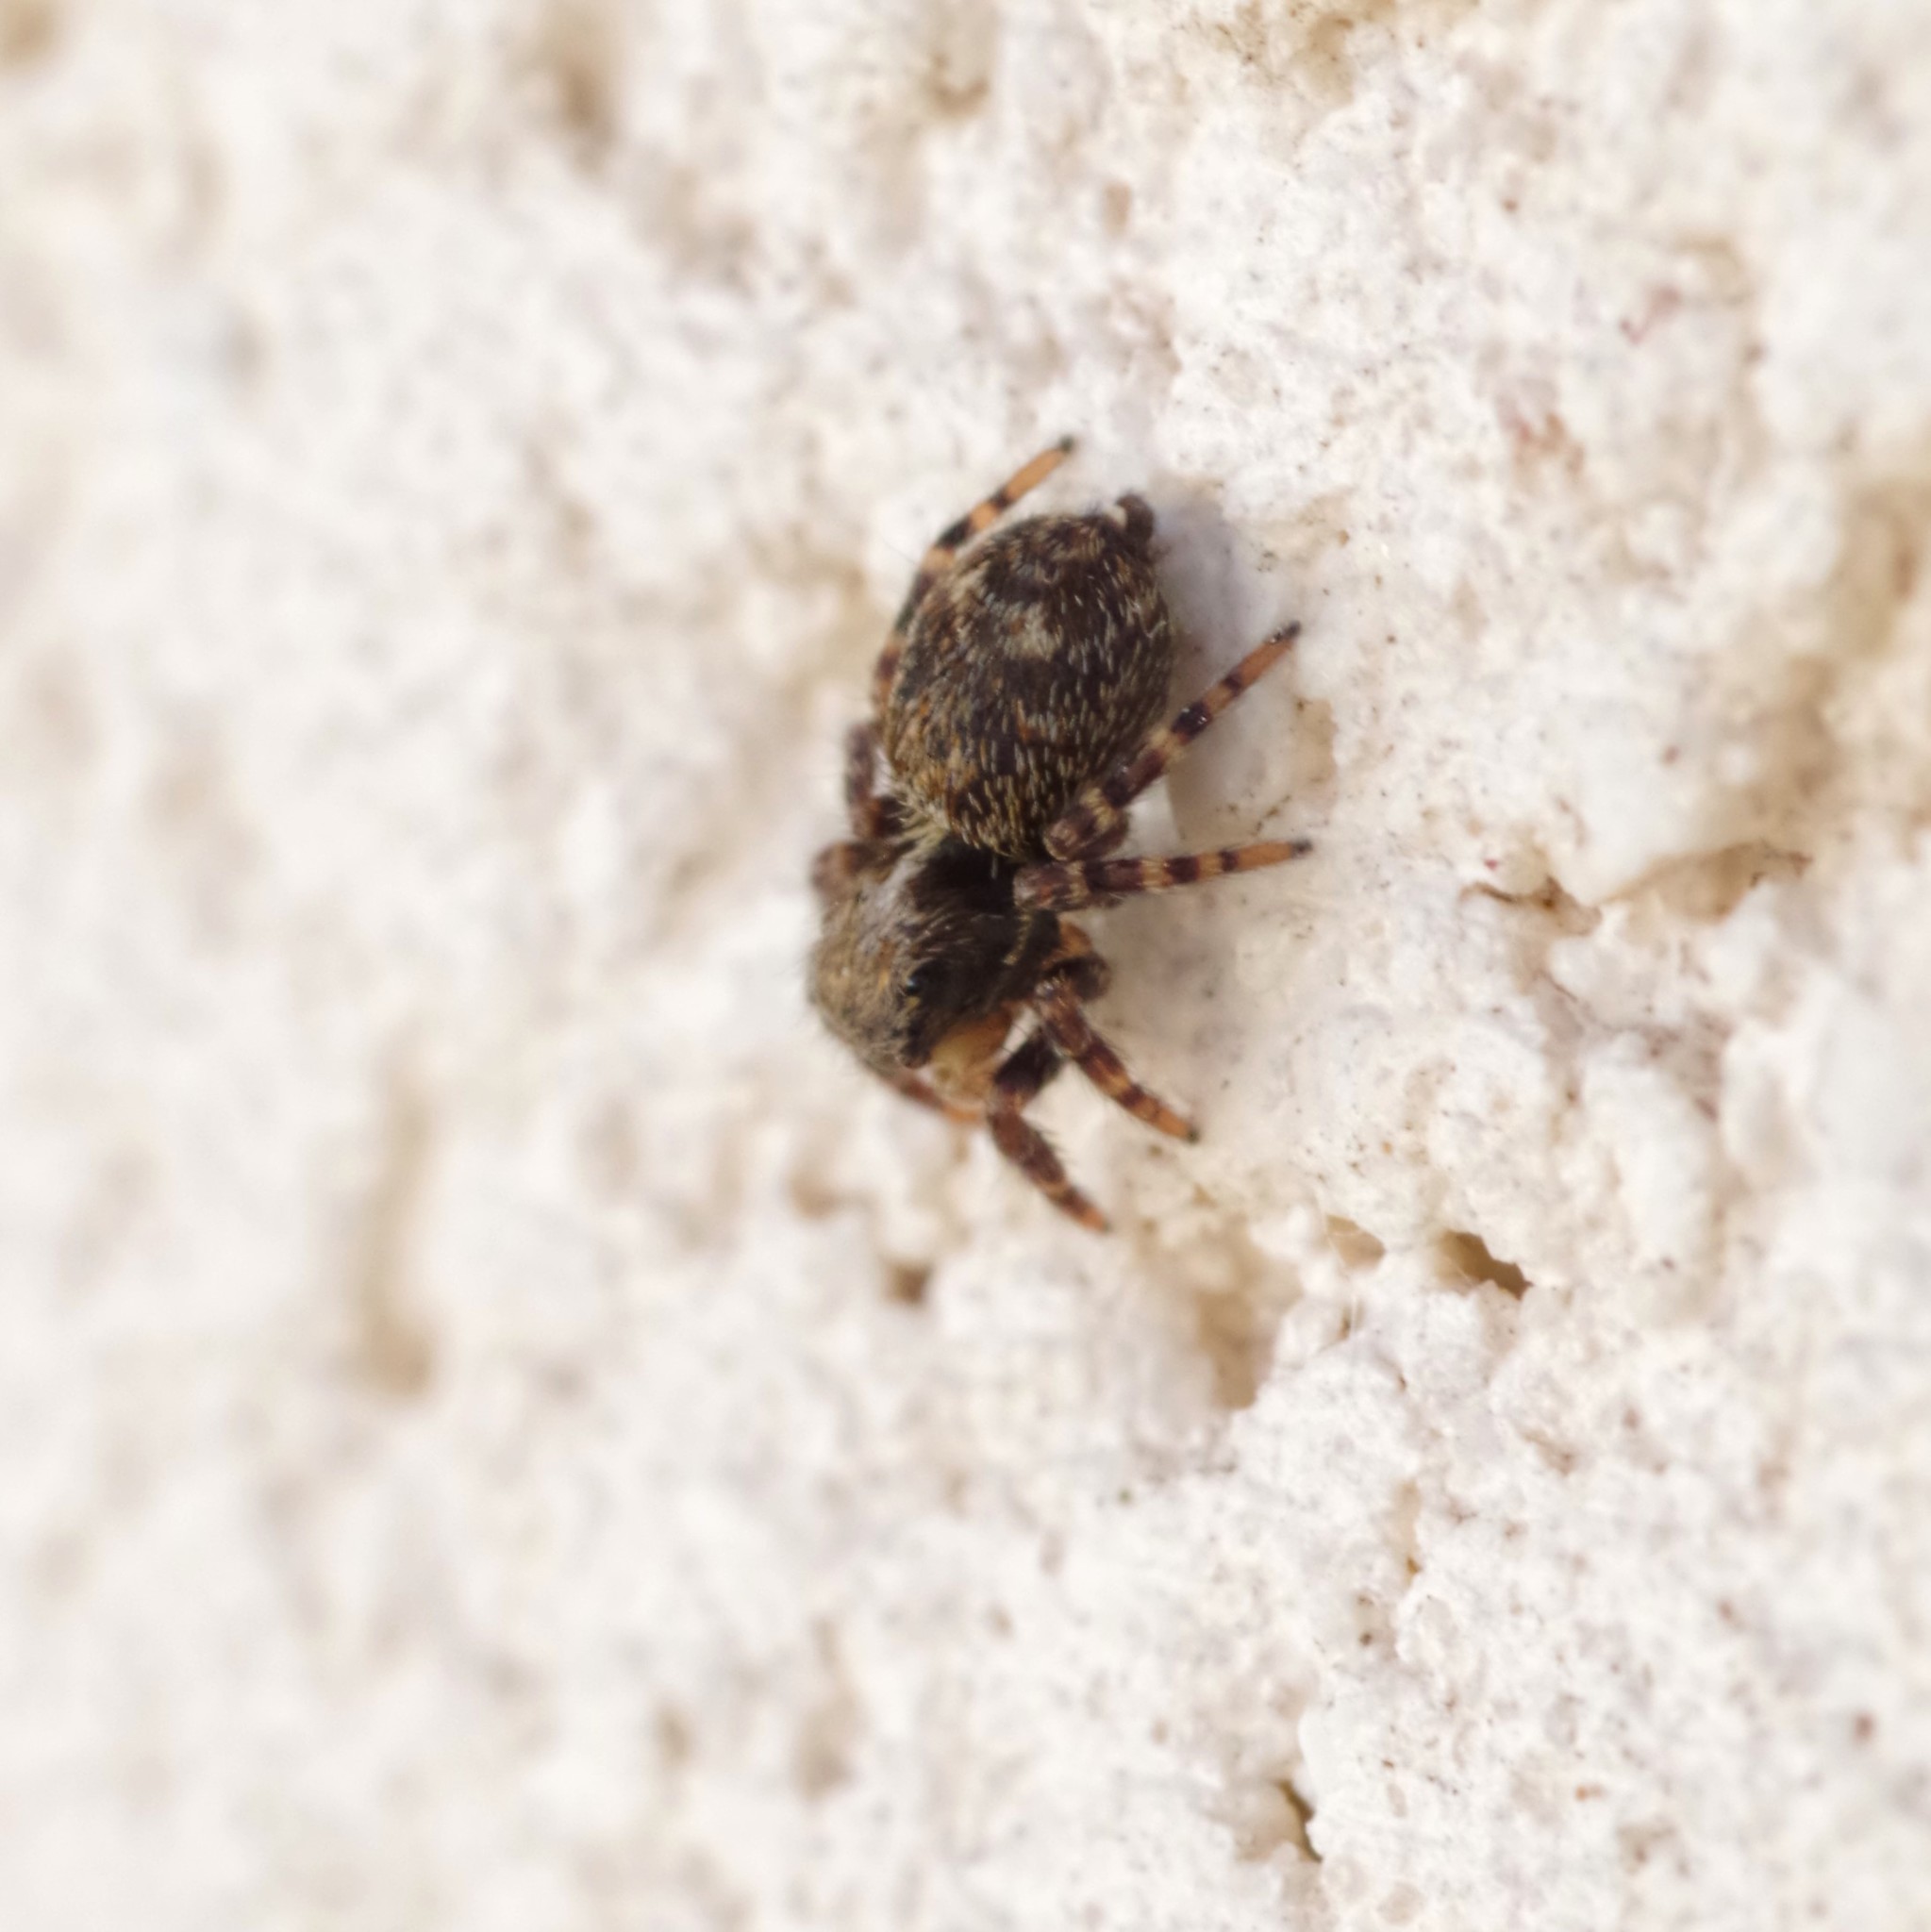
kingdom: Animalia
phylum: Arthropoda
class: Arachnida
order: Araneae
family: Salticidae
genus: Pseudeuophrys
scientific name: Pseudeuophrys erratica
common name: Jumping spider
